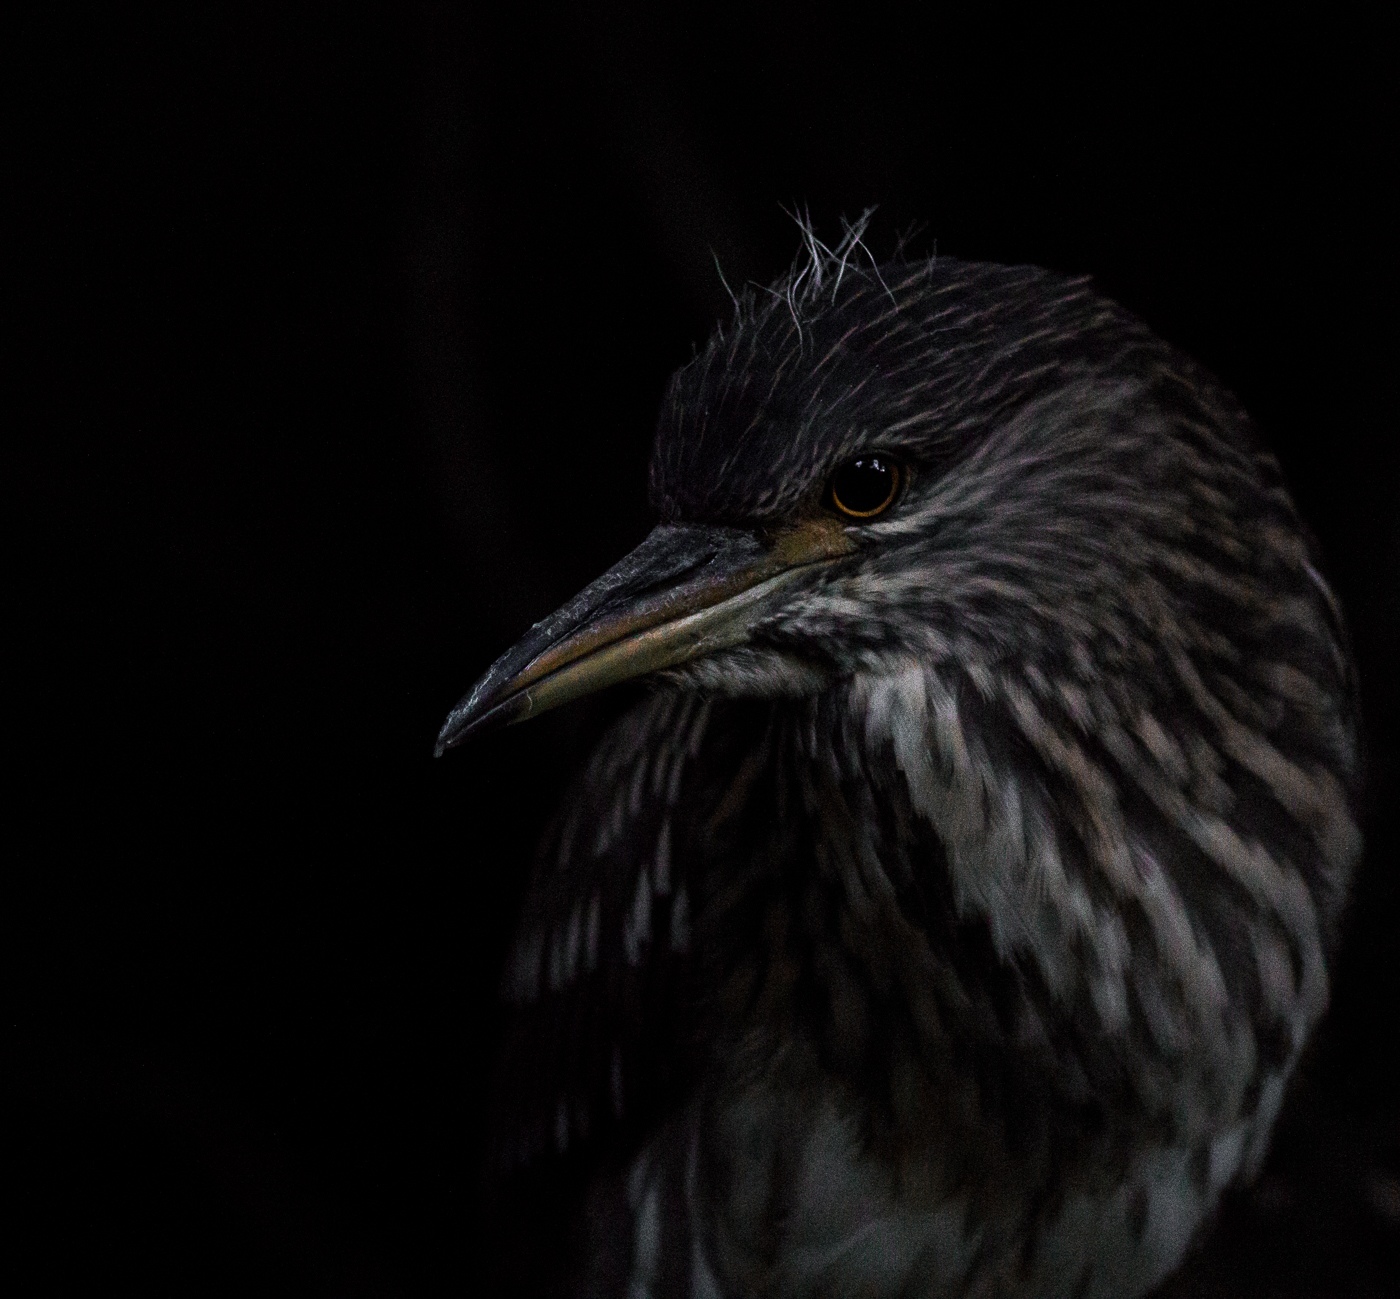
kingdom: Animalia
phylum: Chordata
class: Aves
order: Pelecaniformes
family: Ardeidae
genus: Nycticorax
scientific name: Nycticorax nycticorax
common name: Black-crowned night heron
